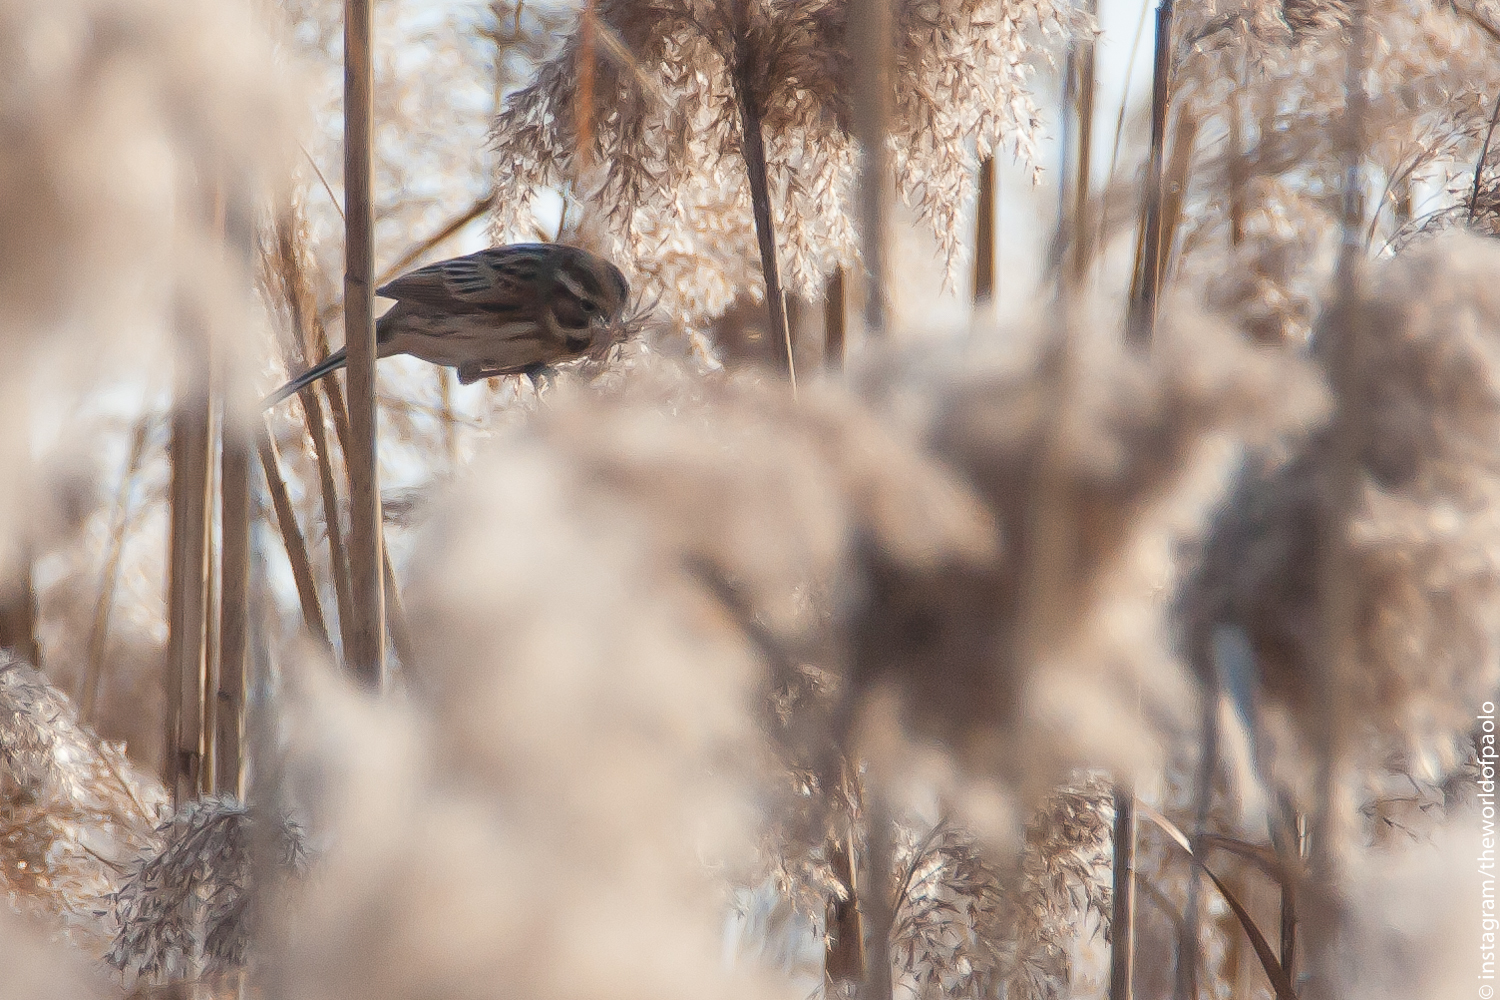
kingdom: Animalia
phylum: Chordata
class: Aves
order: Passeriformes
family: Emberizidae
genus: Emberiza
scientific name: Emberiza schoeniclus
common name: Reed bunting
